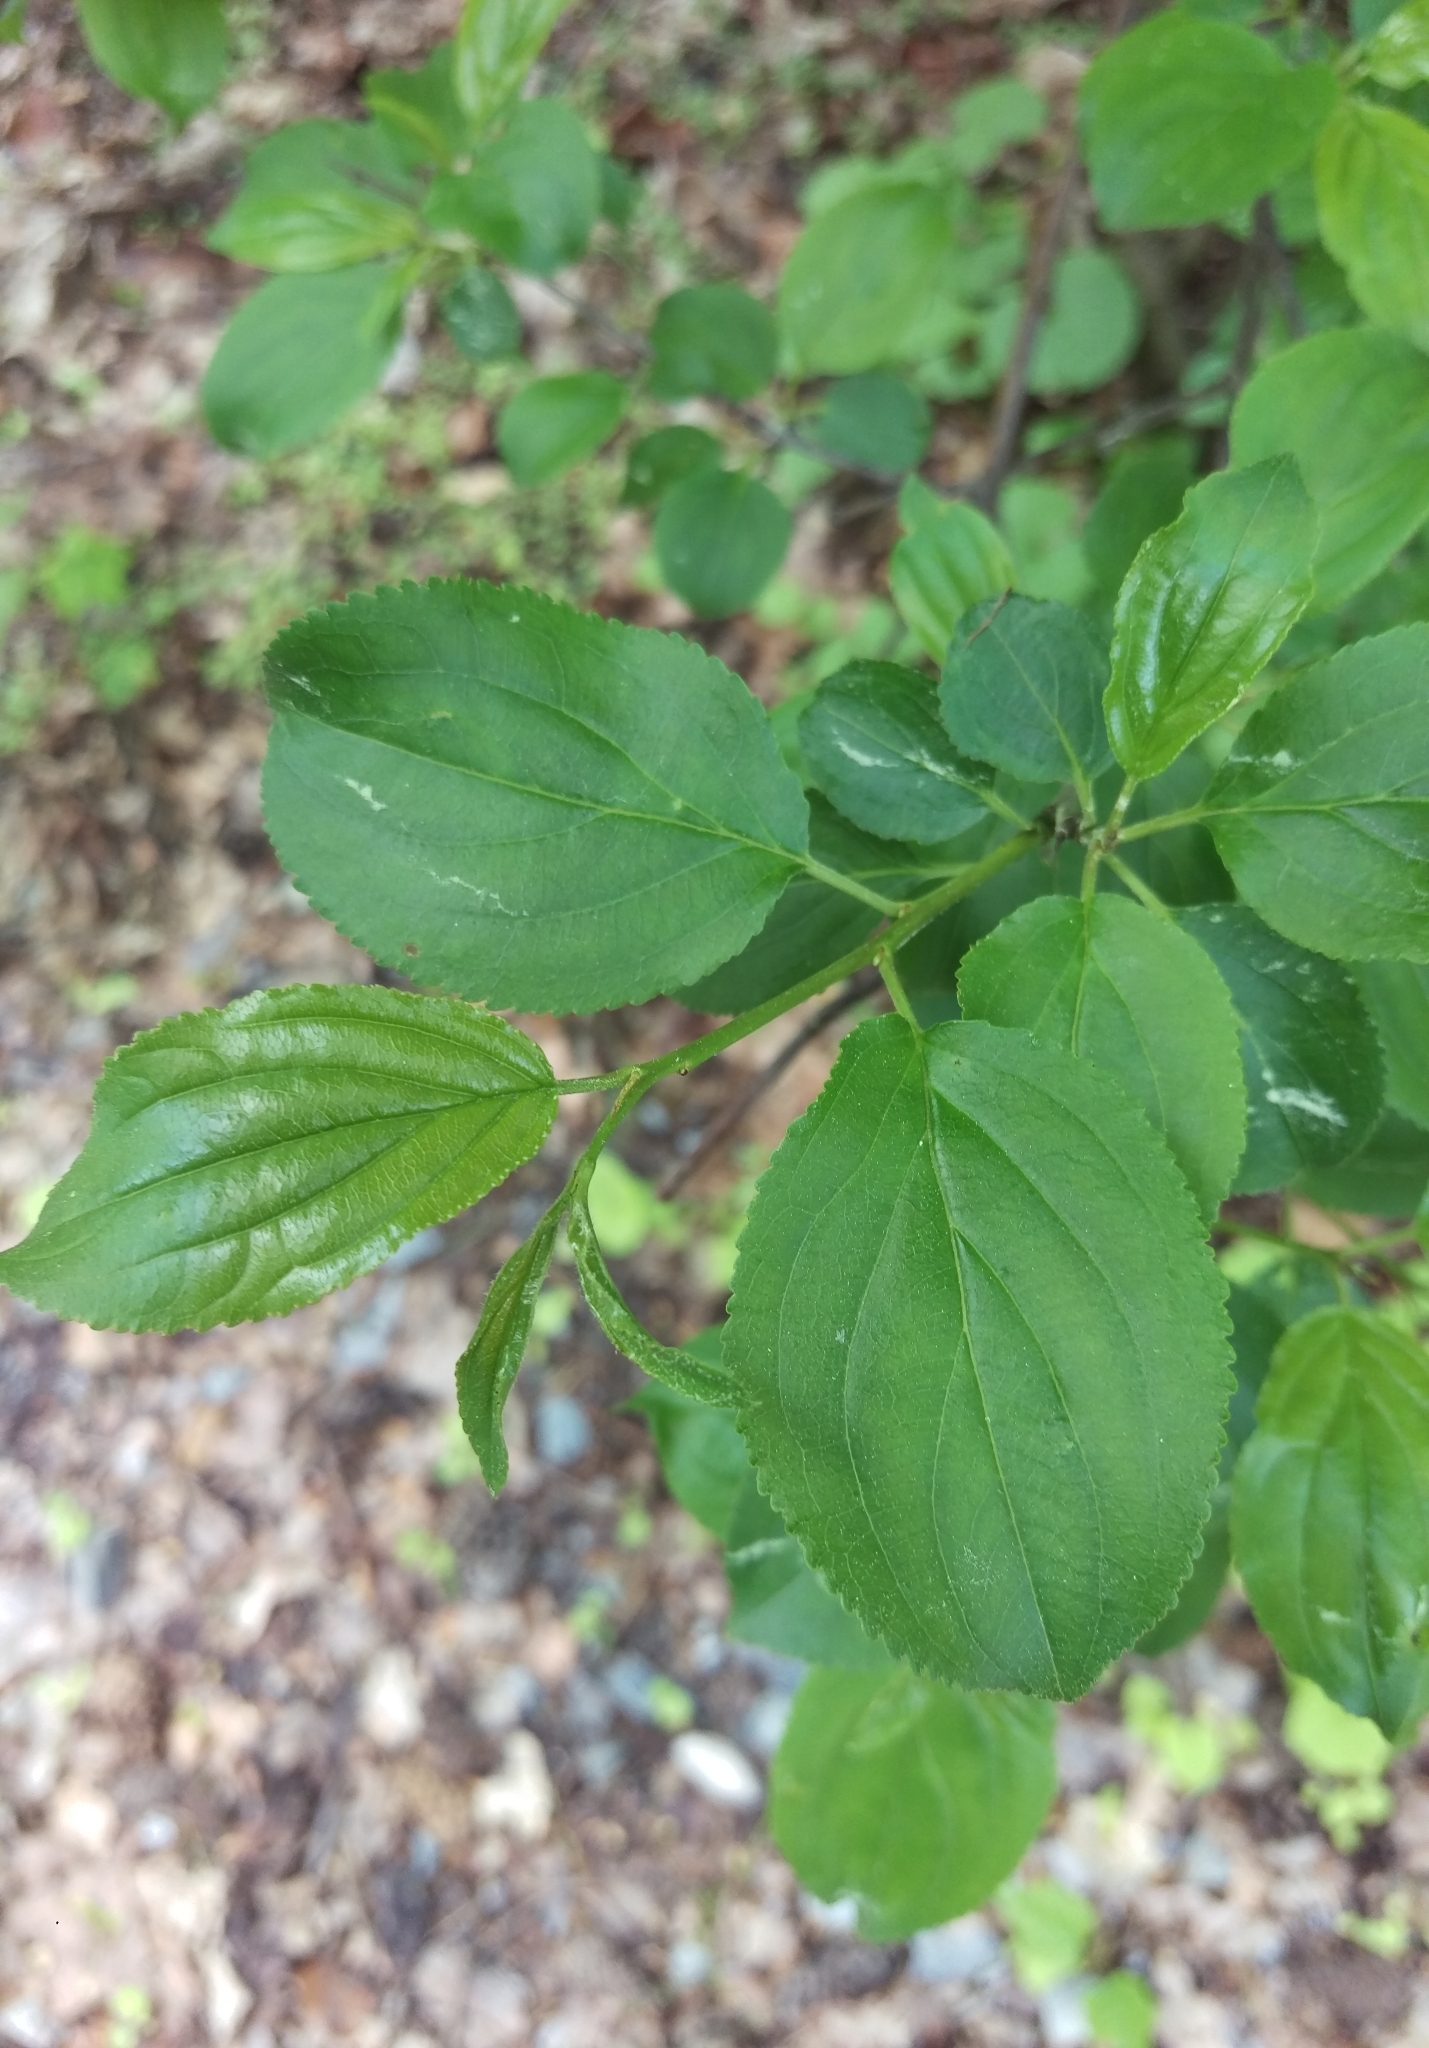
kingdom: Plantae
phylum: Tracheophyta
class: Magnoliopsida
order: Rosales
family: Rhamnaceae
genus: Rhamnus
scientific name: Rhamnus cathartica
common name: Common buckthorn
